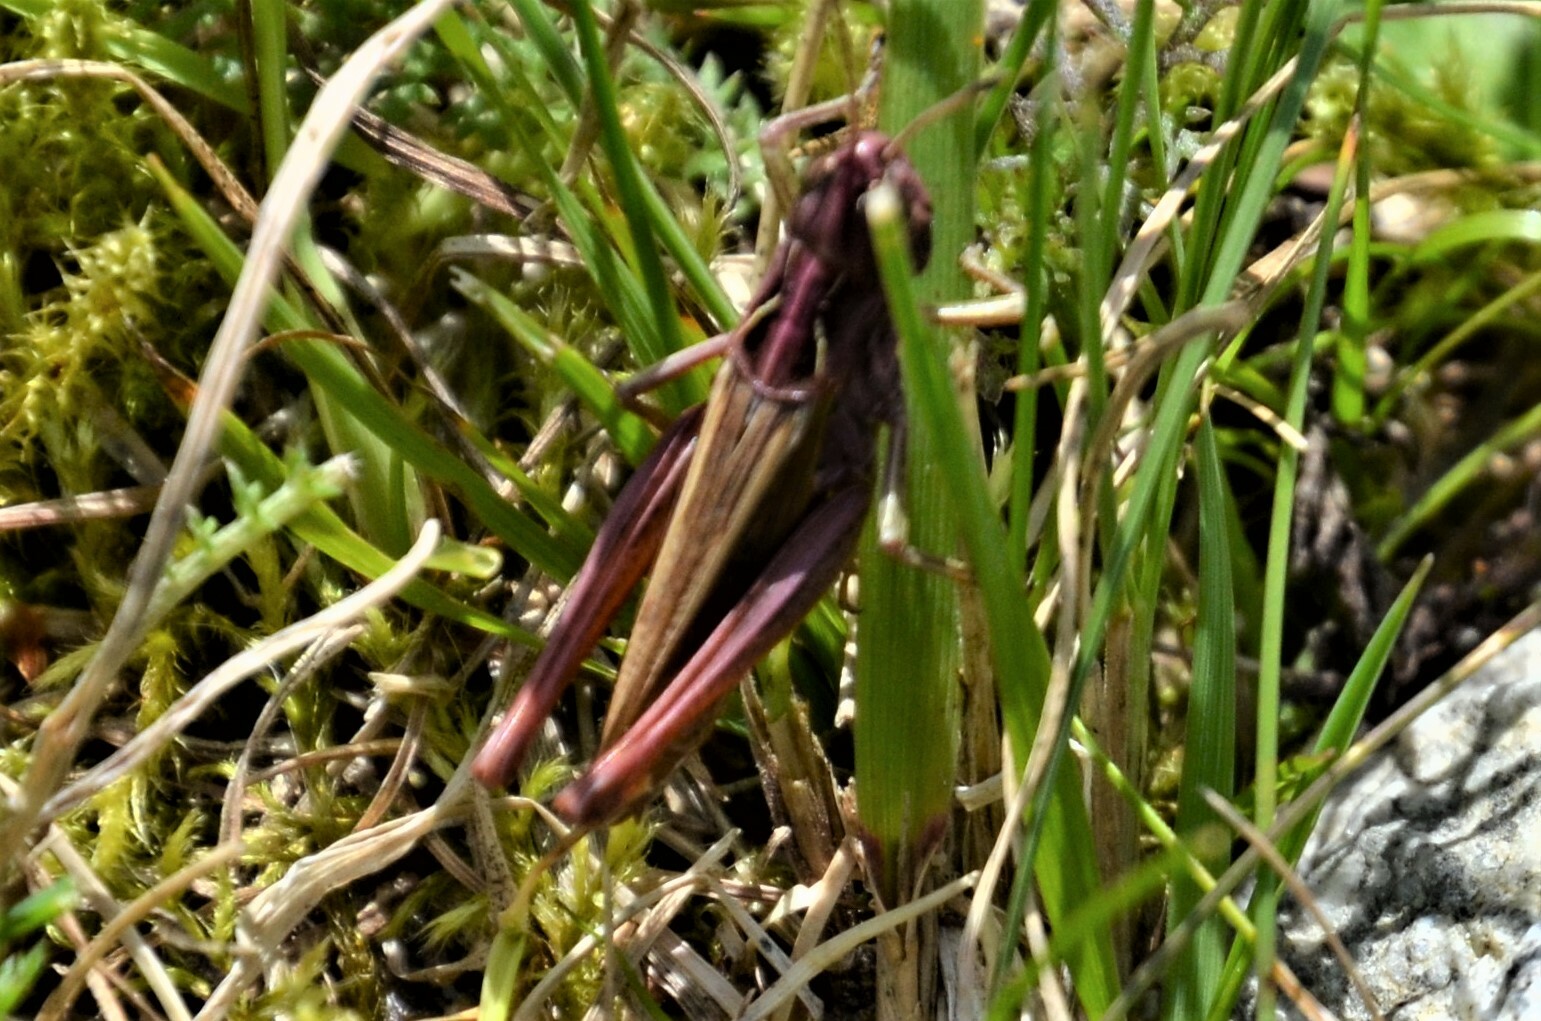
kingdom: Animalia
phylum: Arthropoda
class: Insecta
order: Orthoptera
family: Acrididae
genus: Gomphocerippus
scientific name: Gomphocerippus rufus
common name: Rufous grasshopper
